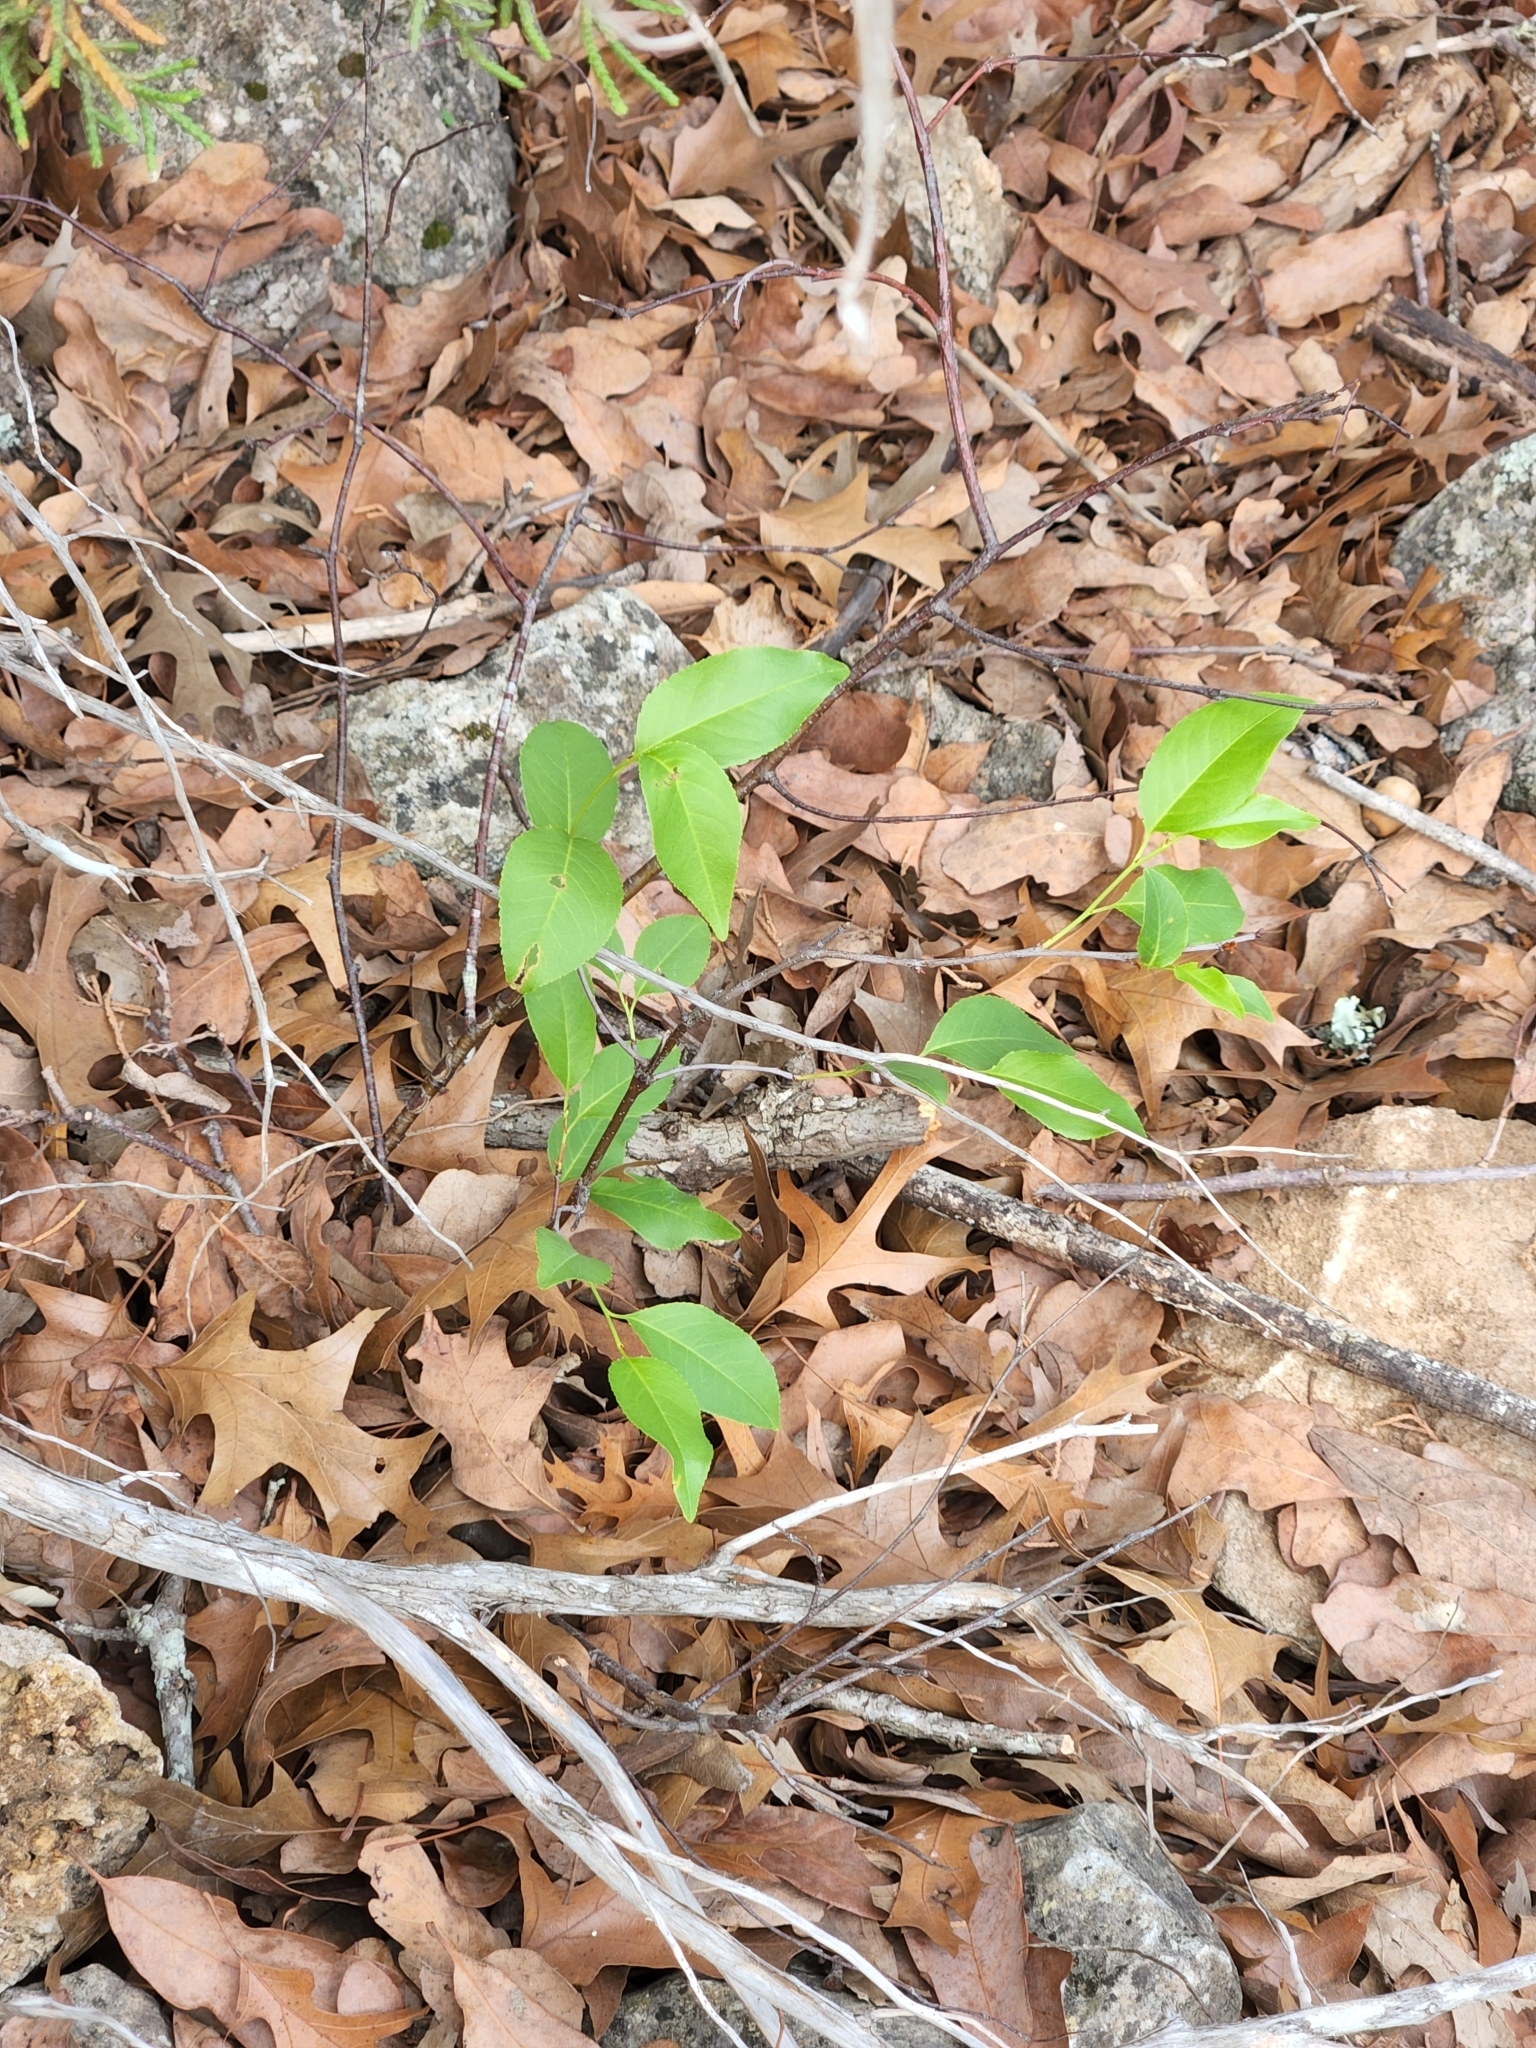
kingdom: Plantae
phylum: Tracheophyta
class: Magnoliopsida
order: Rosales
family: Rosaceae
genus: Prunus
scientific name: Prunus serotina
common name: Black cherry
